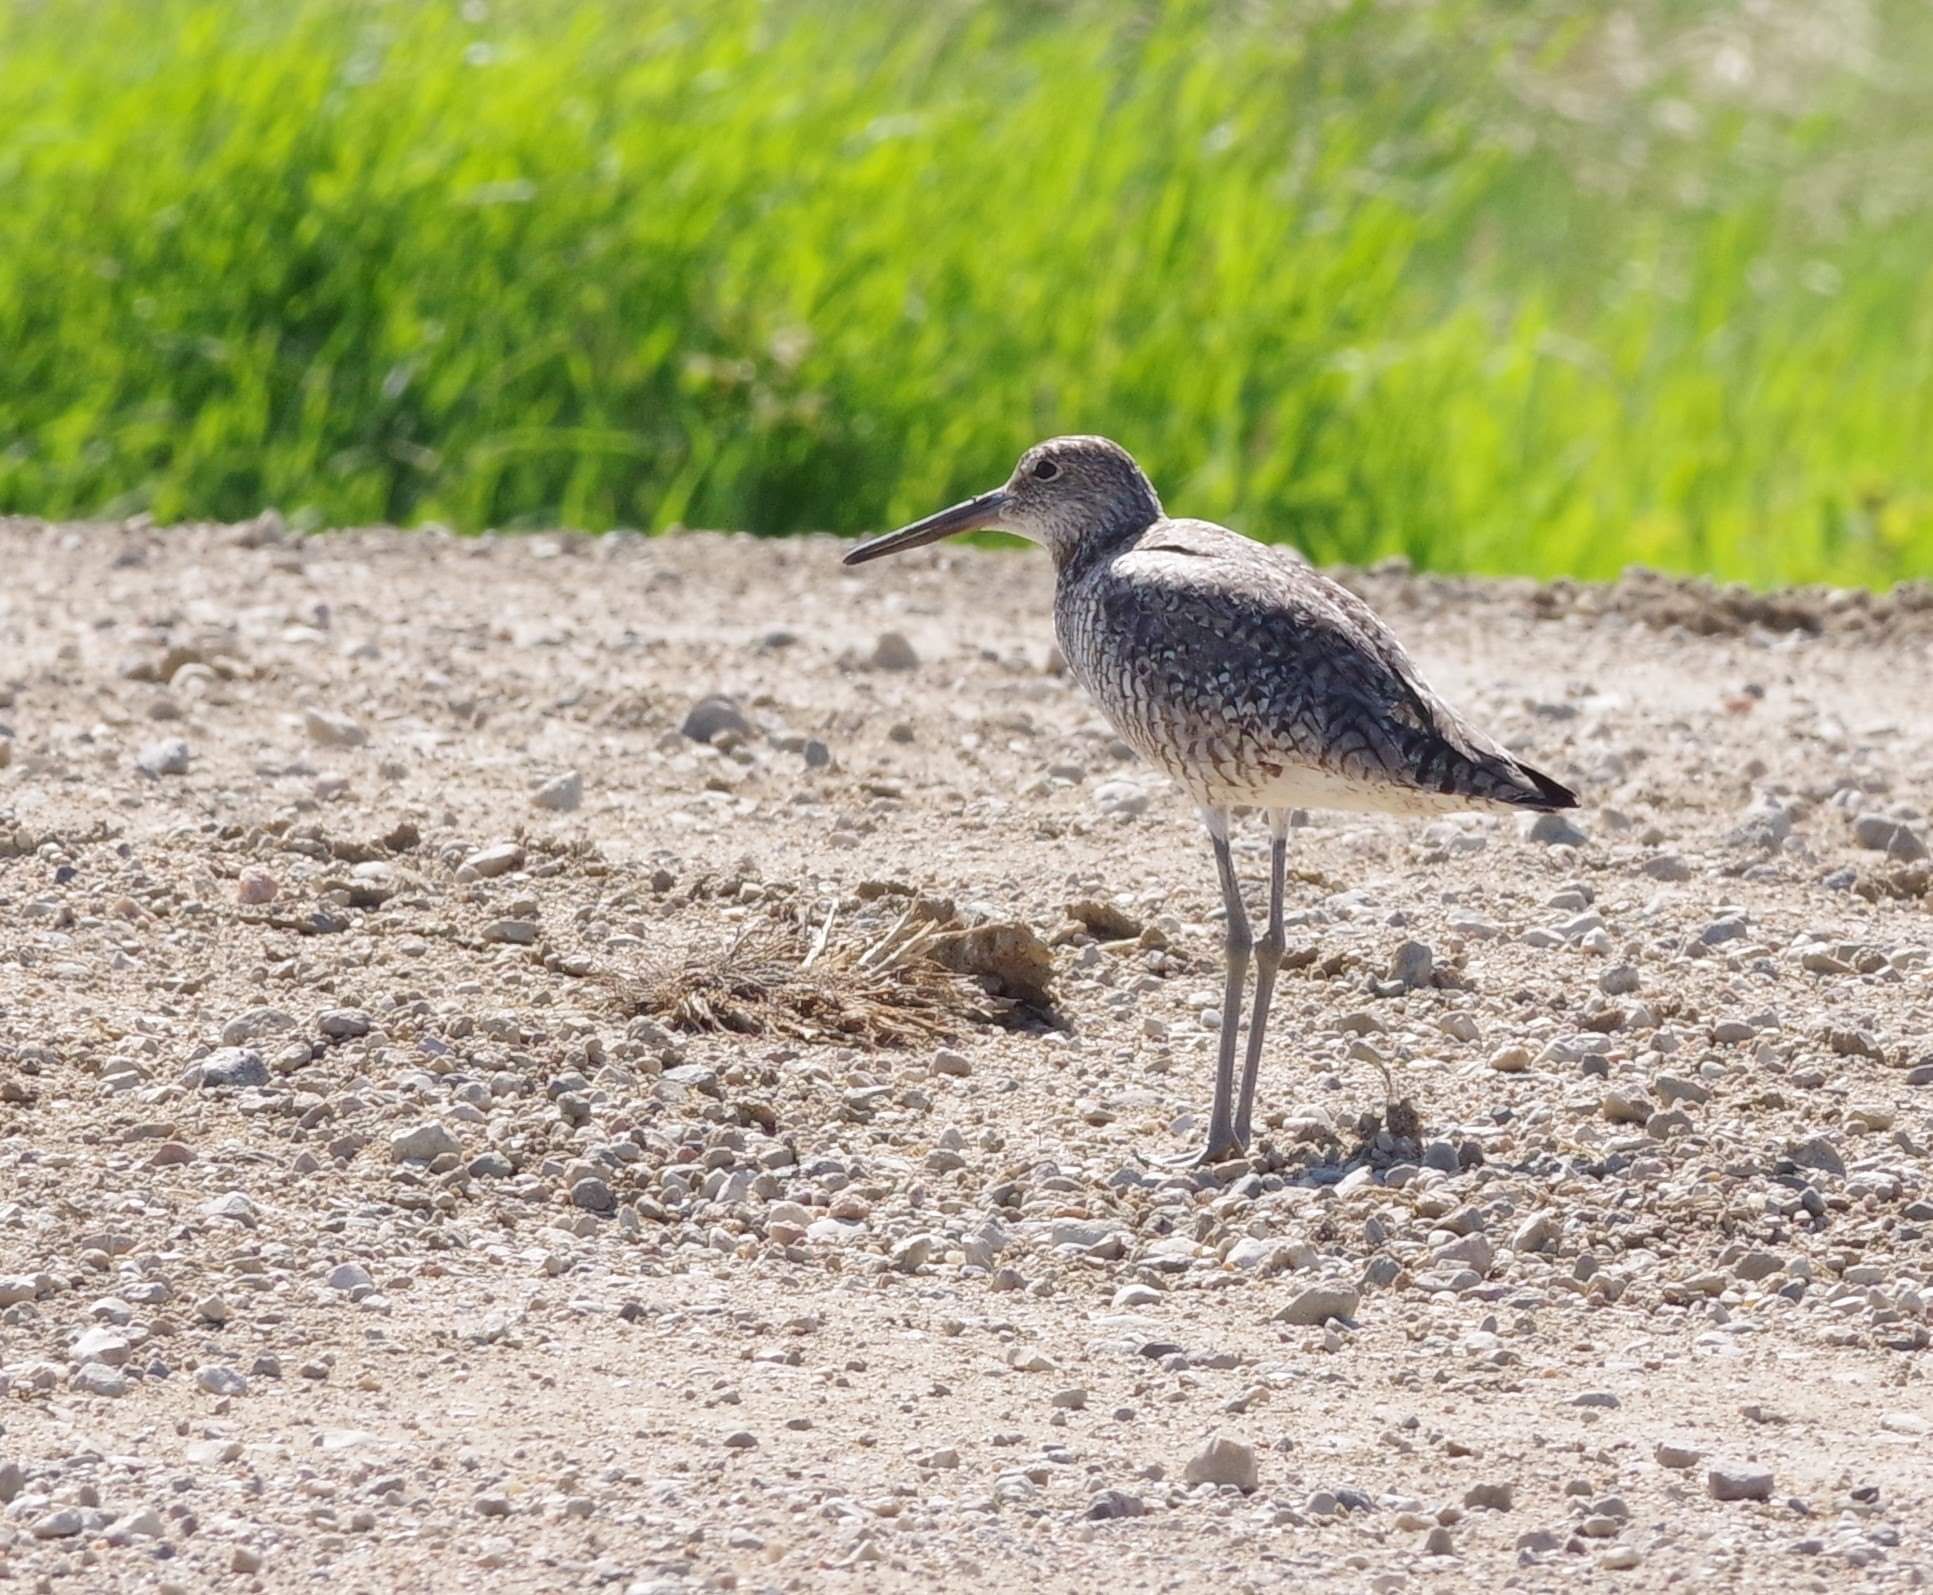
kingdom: Animalia
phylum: Chordata
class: Aves
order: Charadriiformes
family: Scolopacidae
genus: Tringa
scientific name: Tringa semipalmata
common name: Willet
